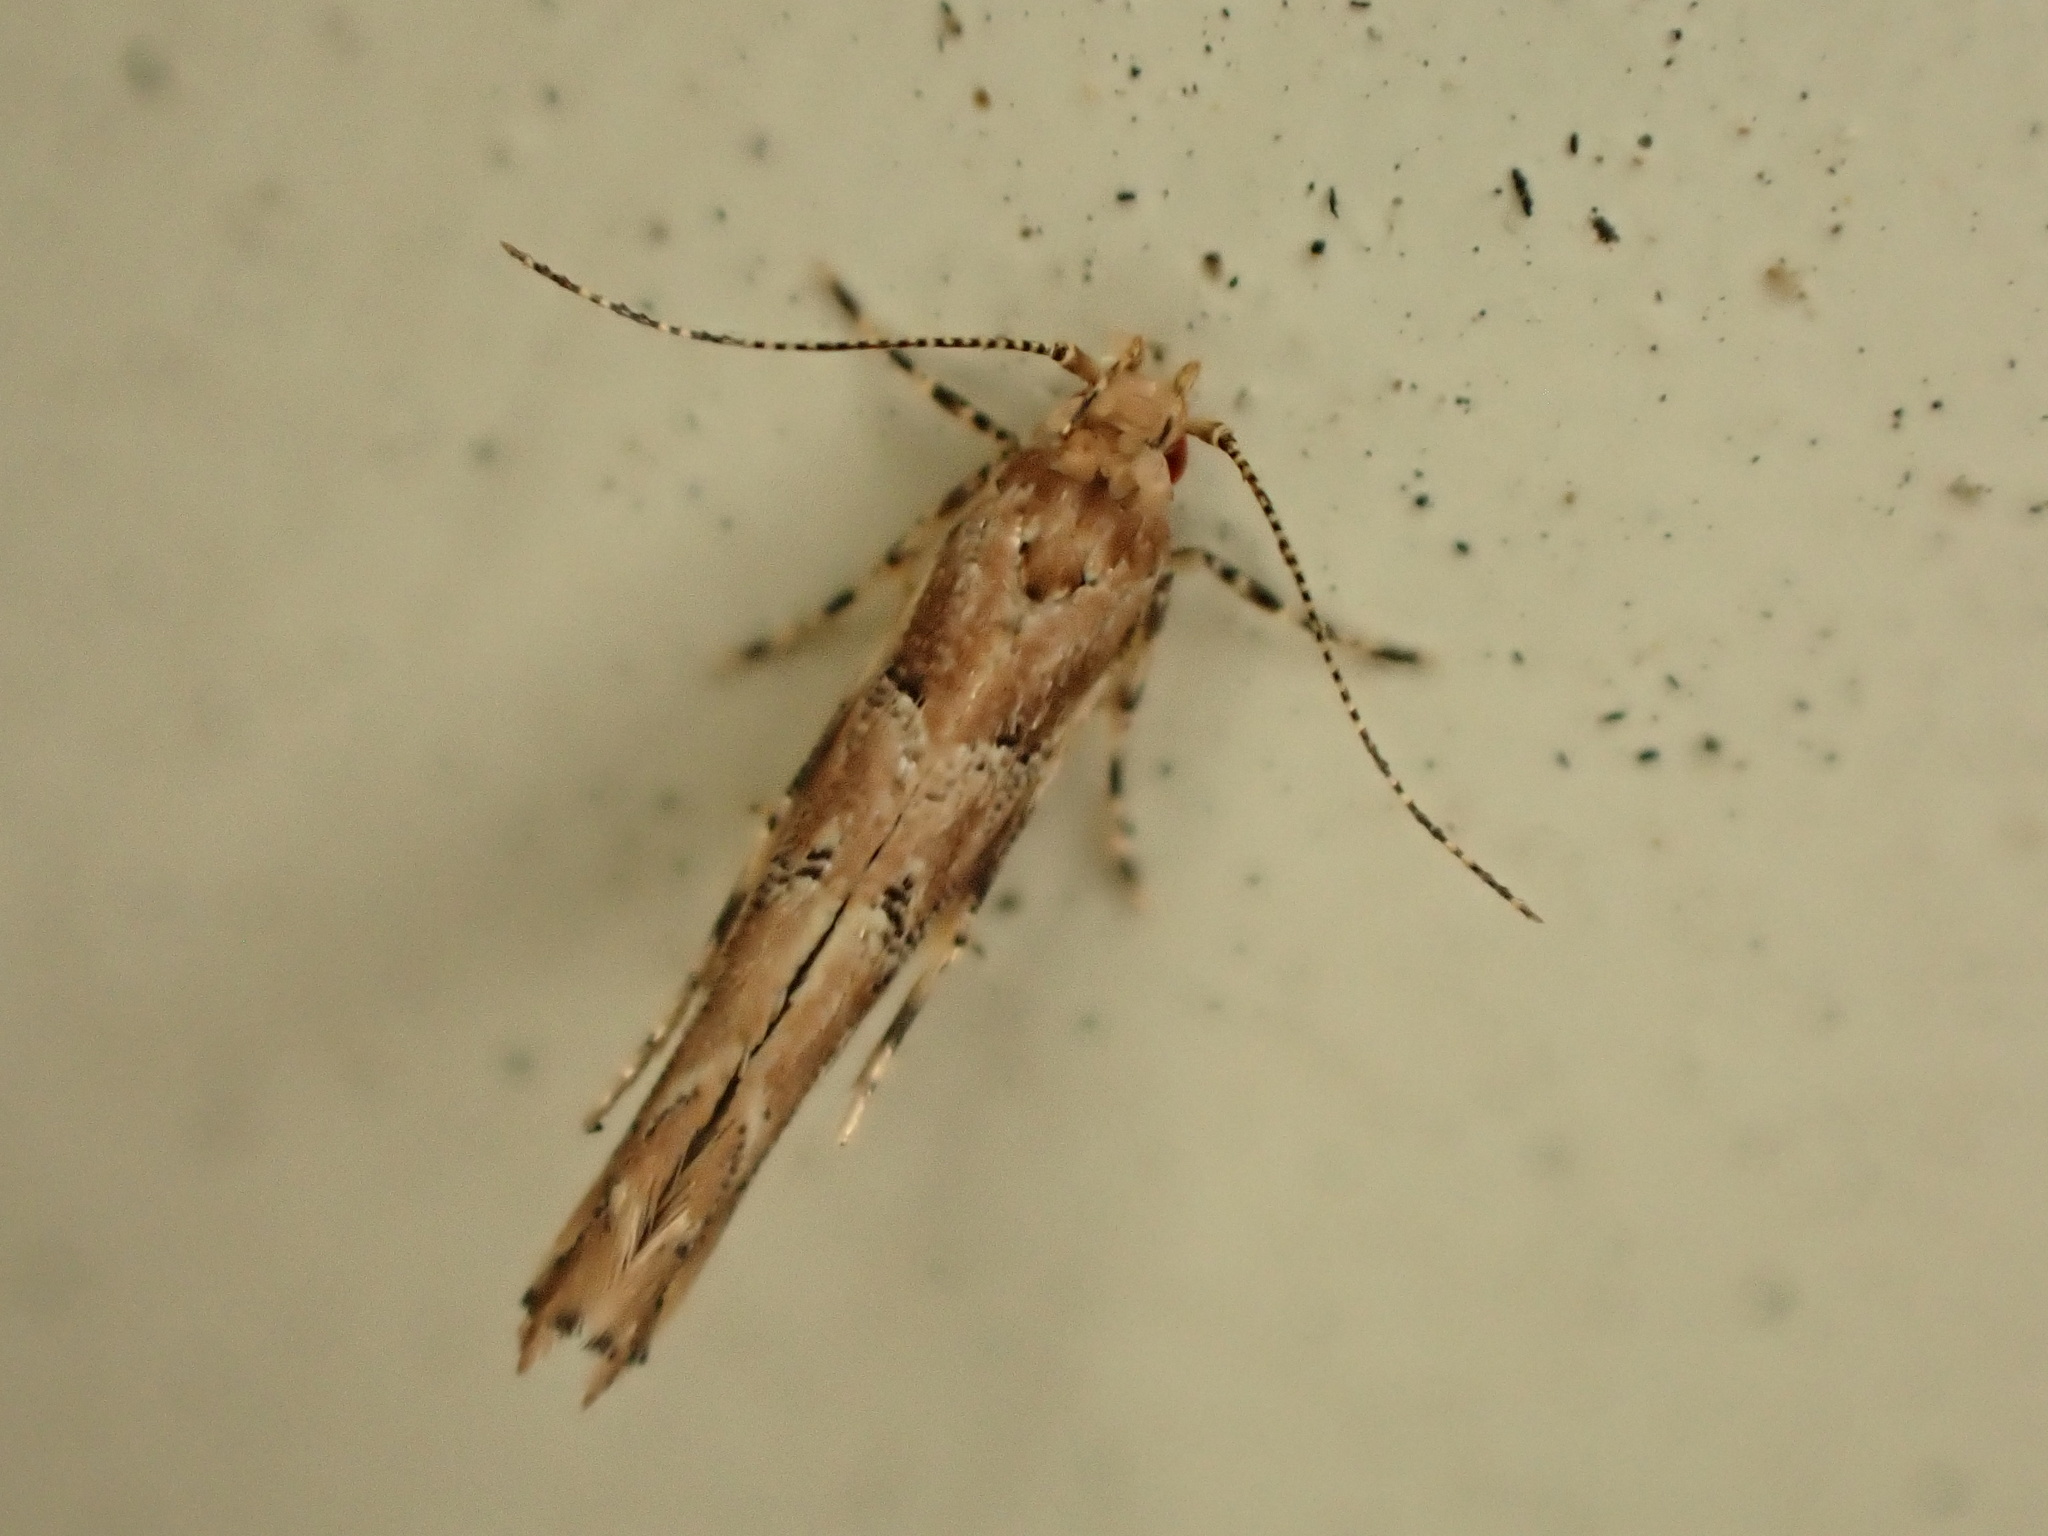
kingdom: Animalia
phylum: Arthropoda
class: Insecta
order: Lepidoptera
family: Cosmopterigidae
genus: Pyroderces
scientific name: Pyroderces aellotricha
